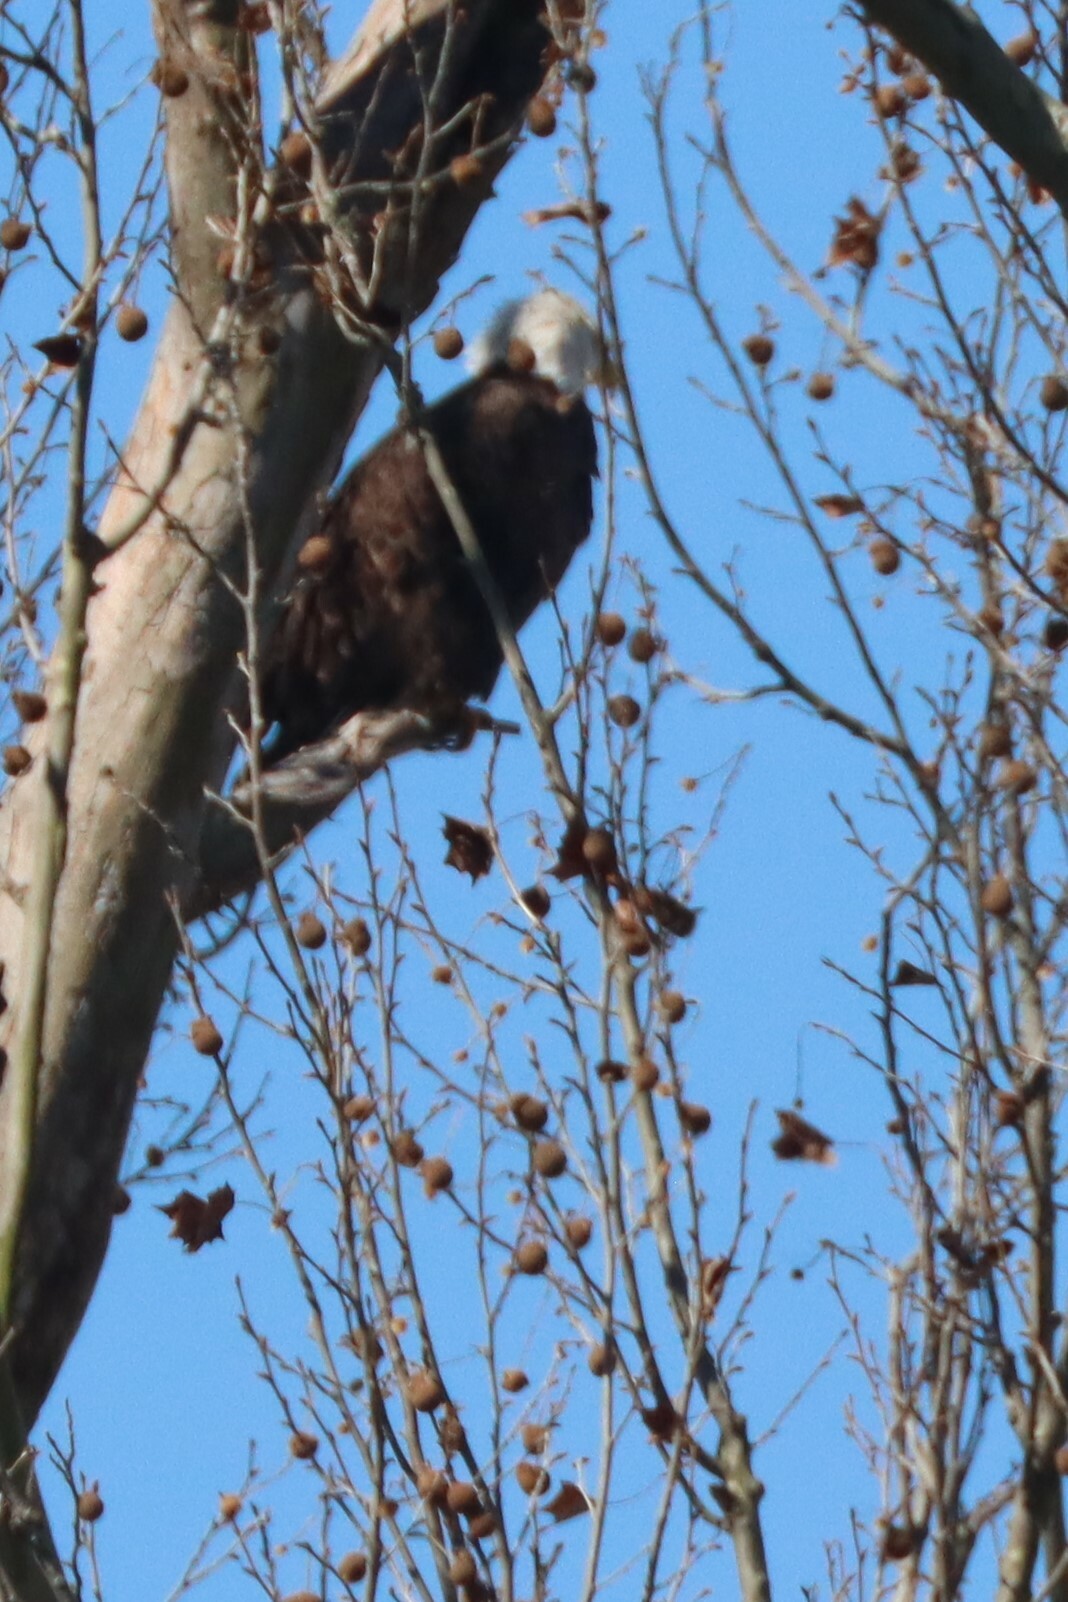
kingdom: Animalia
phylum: Chordata
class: Aves
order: Accipitriformes
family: Accipitridae
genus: Haliaeetus
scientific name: Haliaeetus leucocephalus
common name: Bald eagle
